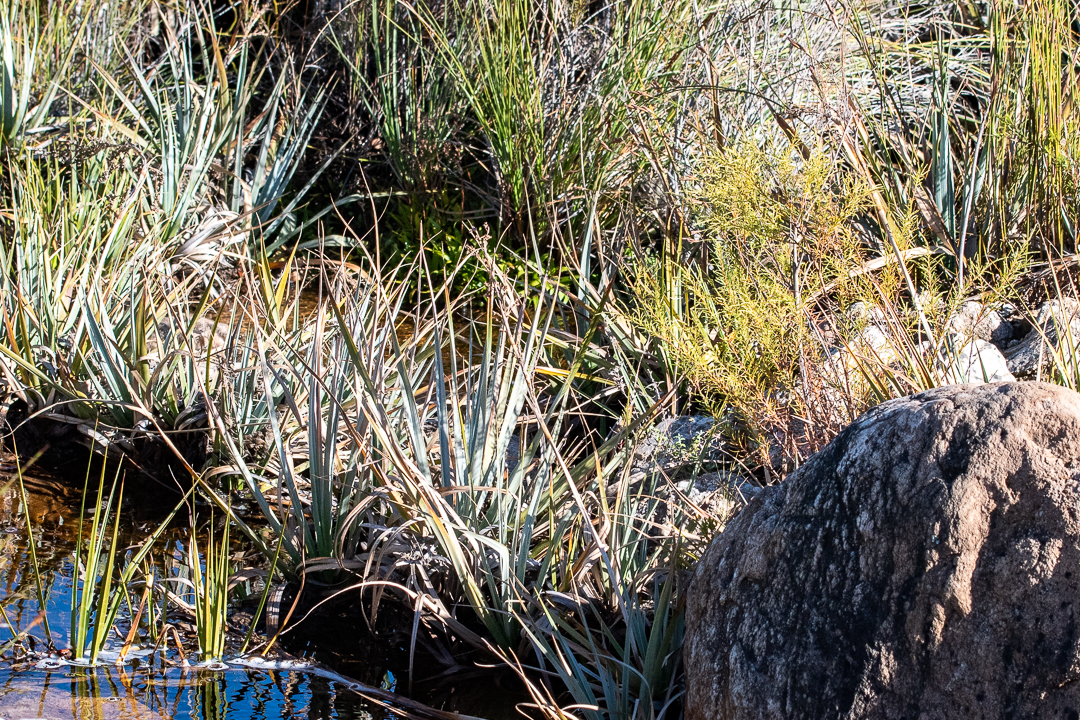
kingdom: Plantae
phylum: Tracheophyta
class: Liliopsida
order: Poales
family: Thurniaceae
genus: Prionium
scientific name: Prionium serratum
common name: Palmiet
